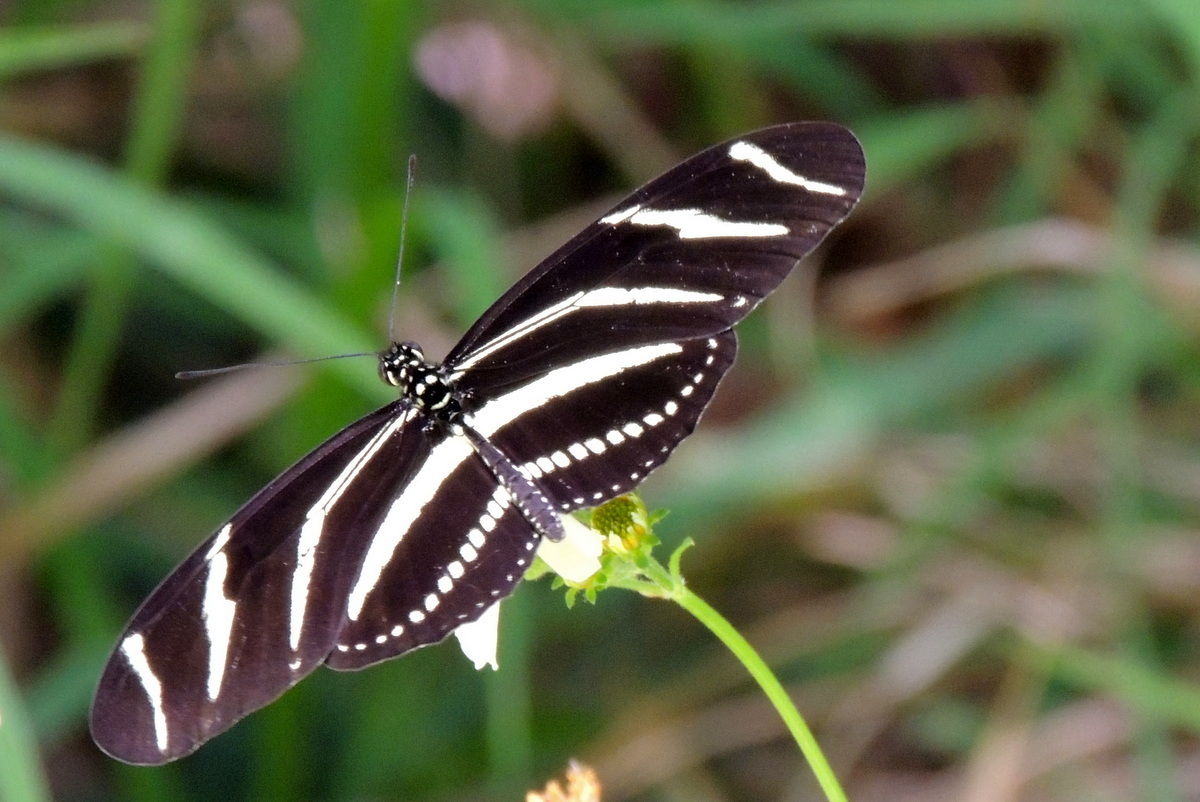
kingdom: Animalia
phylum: Arthropoda
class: Insecta
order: Lepidoptera
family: Nymphalidae
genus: Heliconius
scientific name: Heliconius charithonia
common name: Zebra long wing
